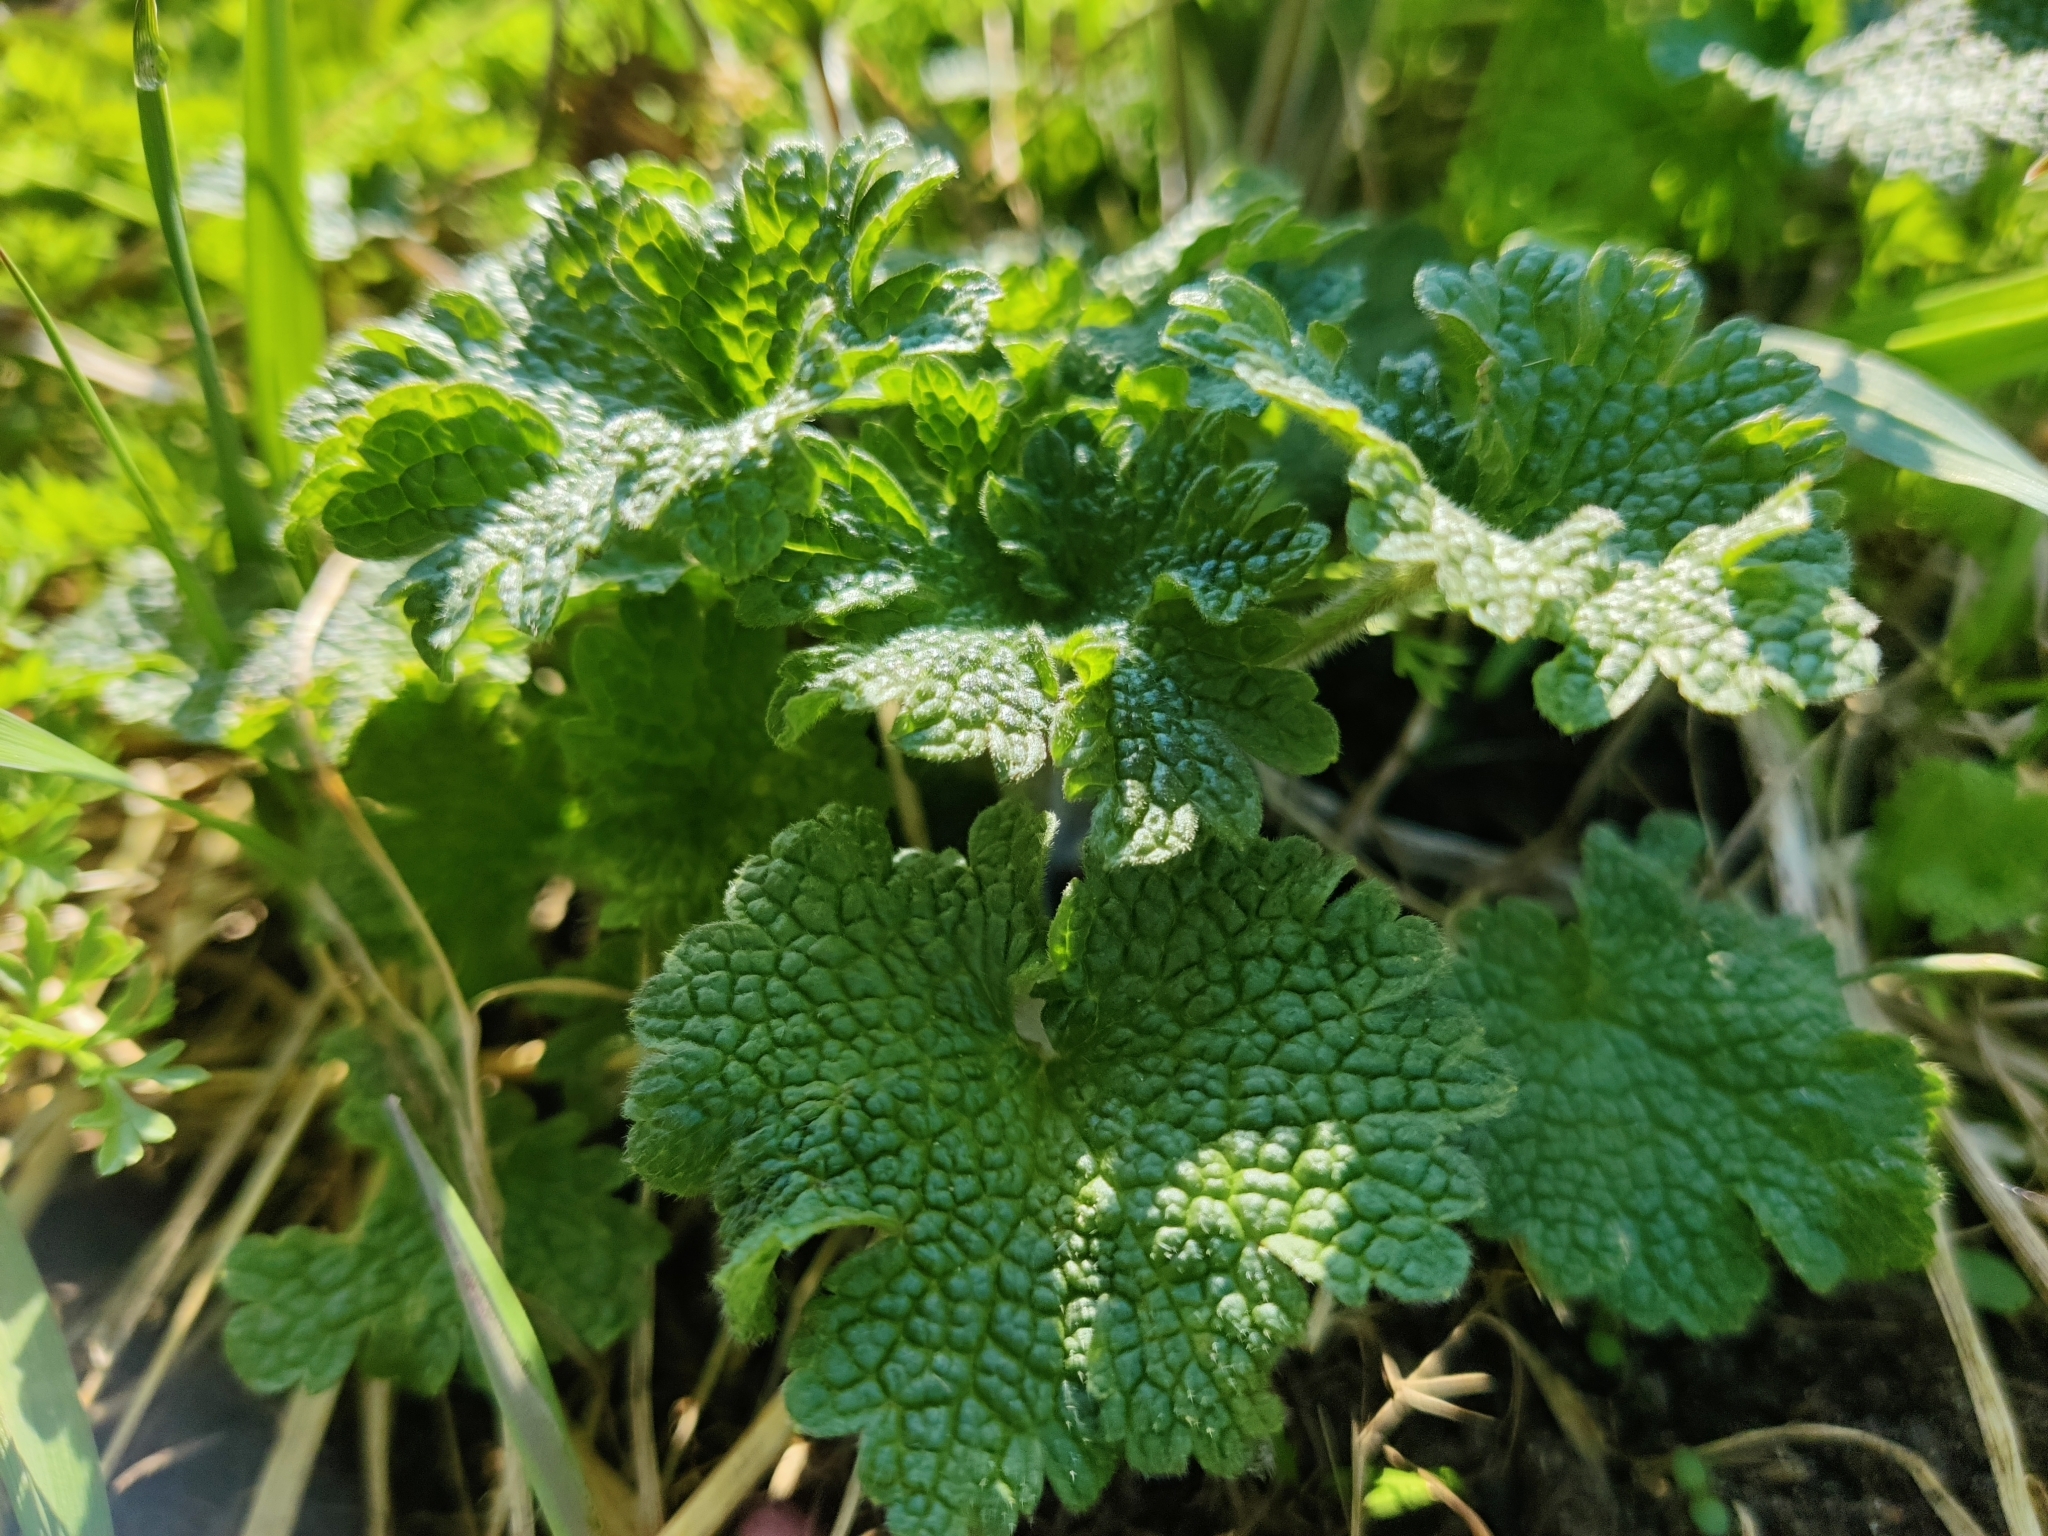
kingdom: Plantae
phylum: Tracheophyta
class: Magnoliopsida
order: Lamiales
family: Lamiaceae
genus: Leonurus
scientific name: Leonurus quinquelobatus
